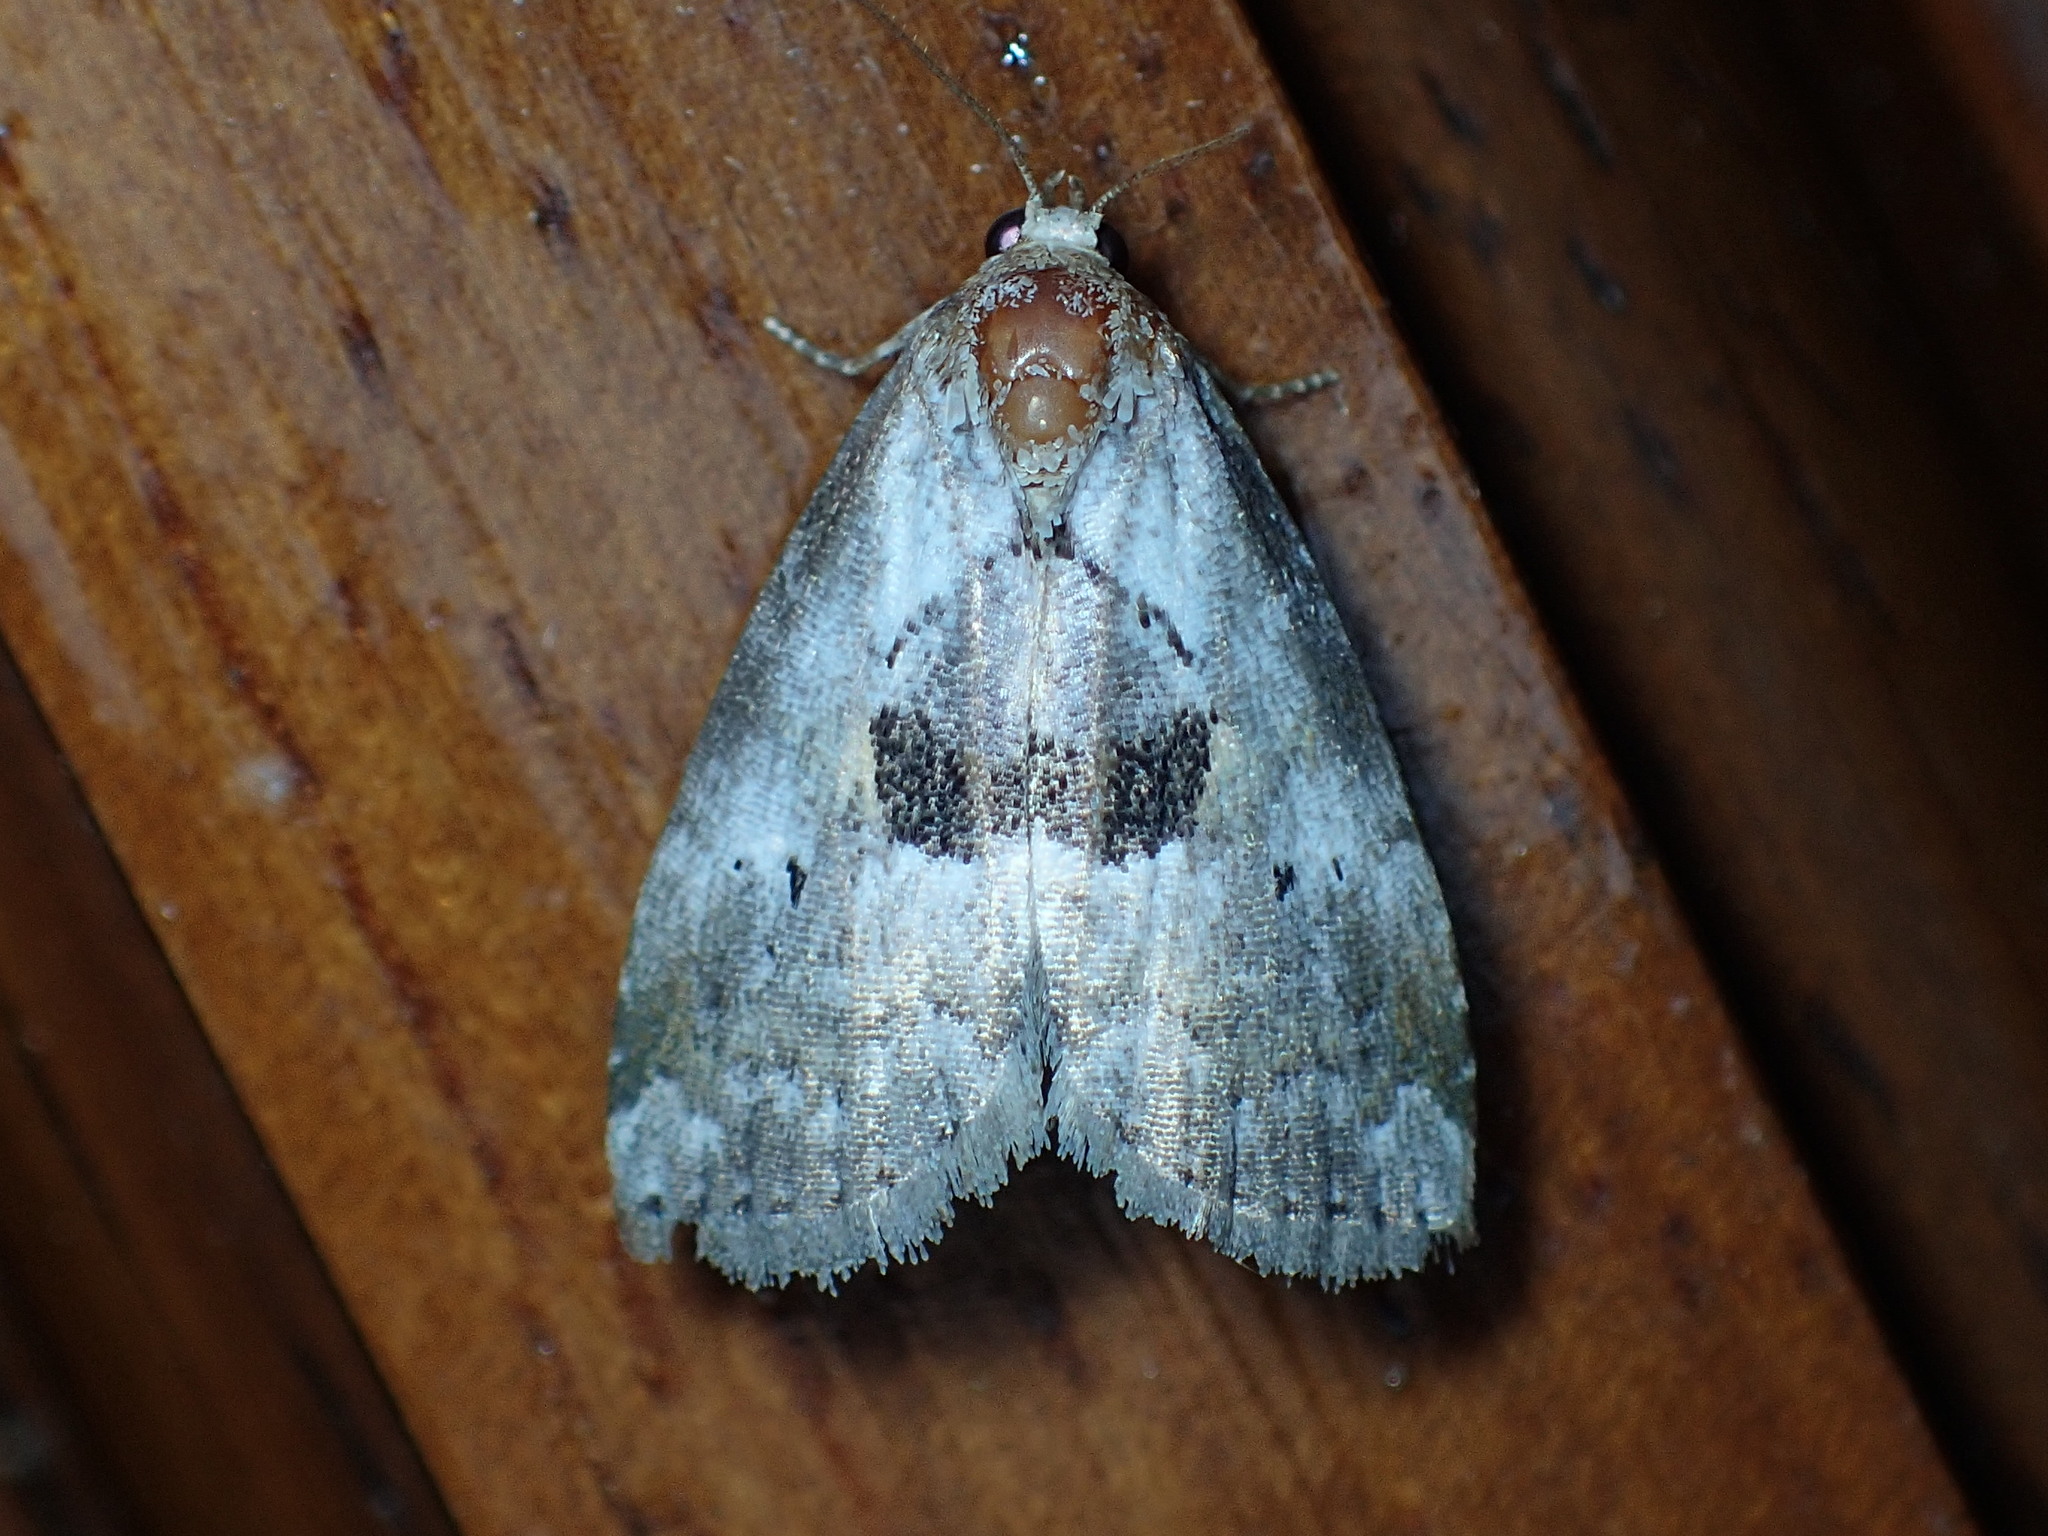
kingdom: Animalia
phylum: Arthropoda
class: Insecta
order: Lepidoptera
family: Erebidae
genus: Hyperstrotia
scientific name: Hyperstrotia secta
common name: Black-patched graylet
